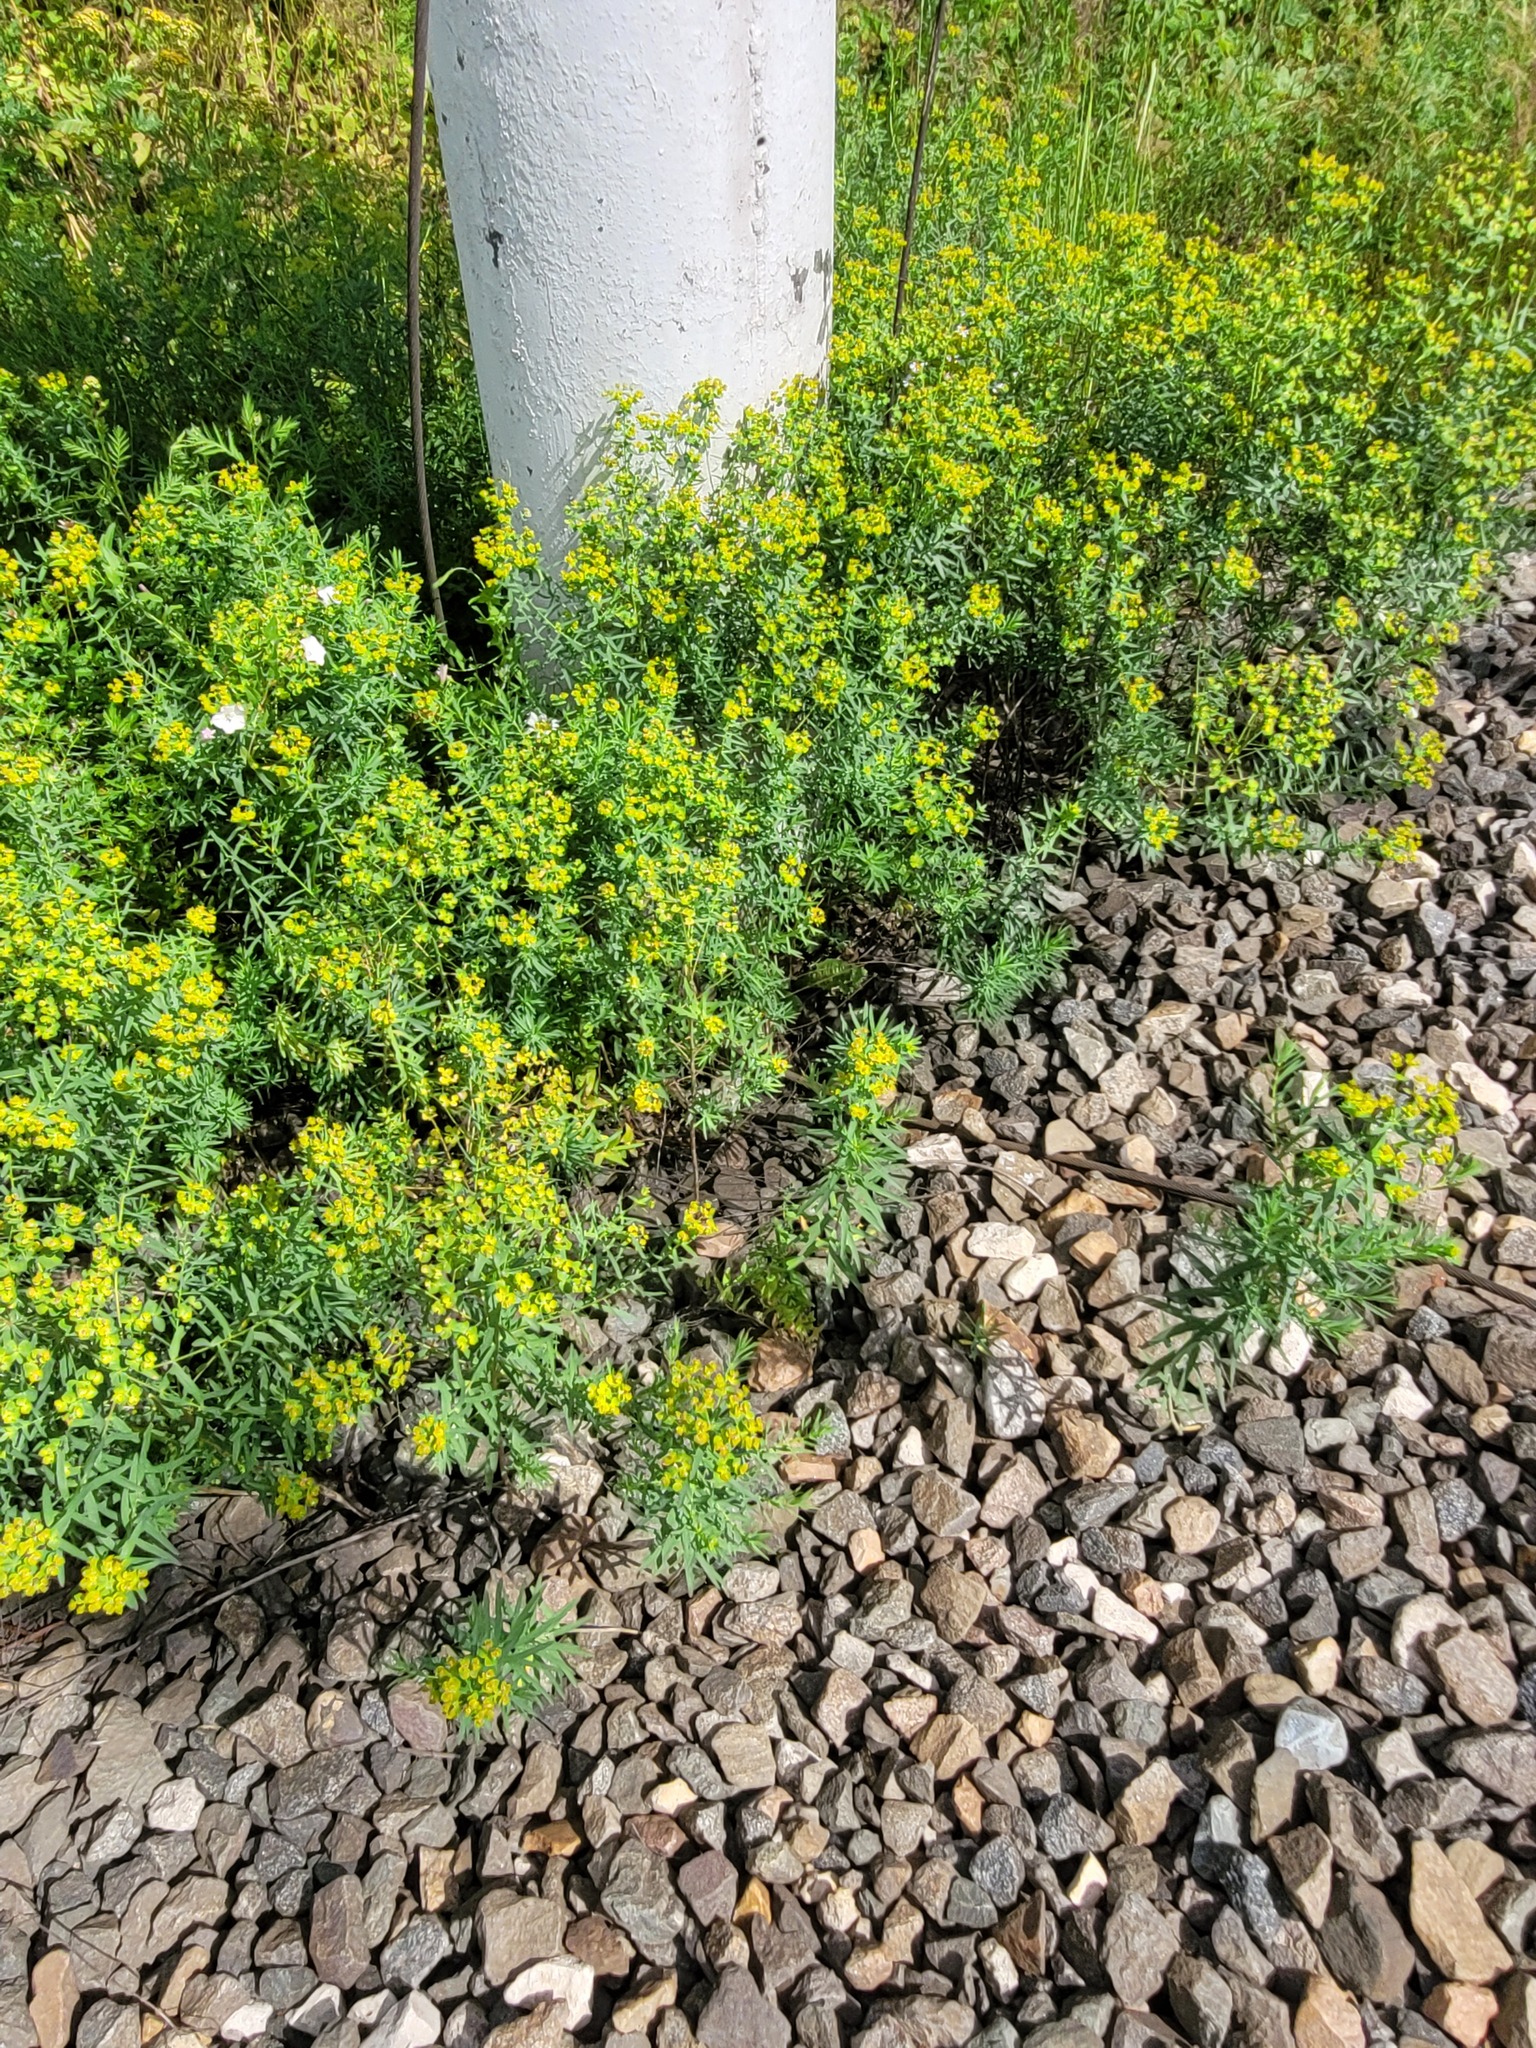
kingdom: Plantae
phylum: Tracheophyta
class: Magnoliopsida
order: Malpighiales
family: Euphorbiaceae
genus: Euphorbia
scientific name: Euphorbia virgata
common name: Leafy spurge
